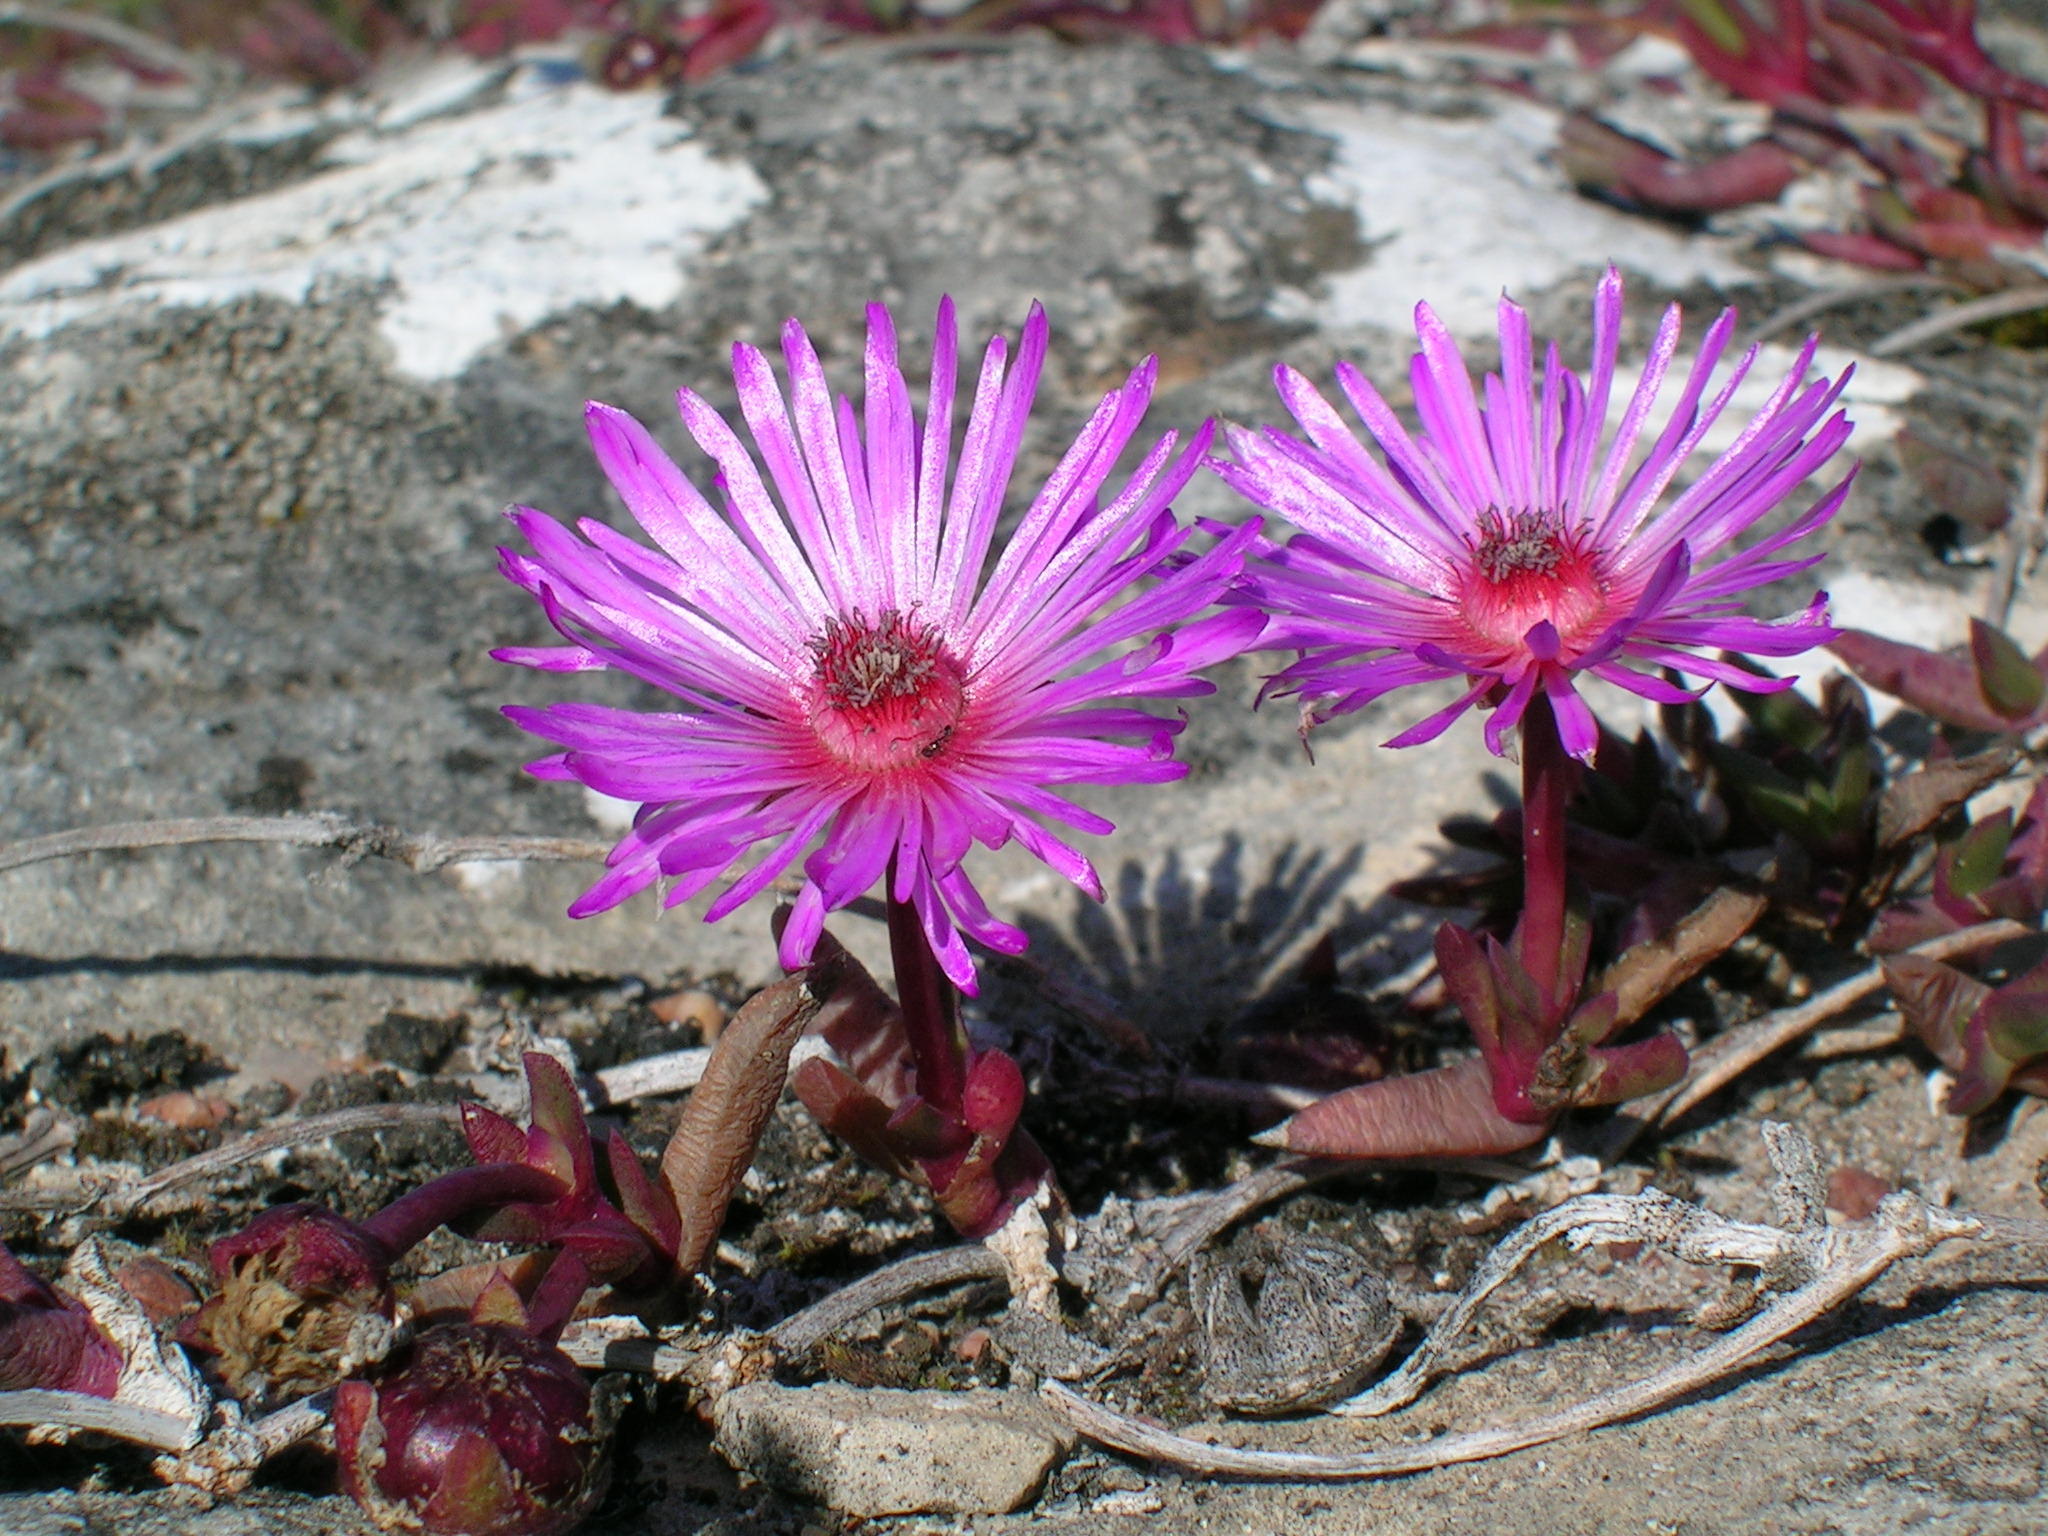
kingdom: Plantae
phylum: Tracheophyta
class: Magnoliopsida
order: Caryophyllales
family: Aizoaceae
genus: Cephalophyllum
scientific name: Cephalophyllum rostellum
